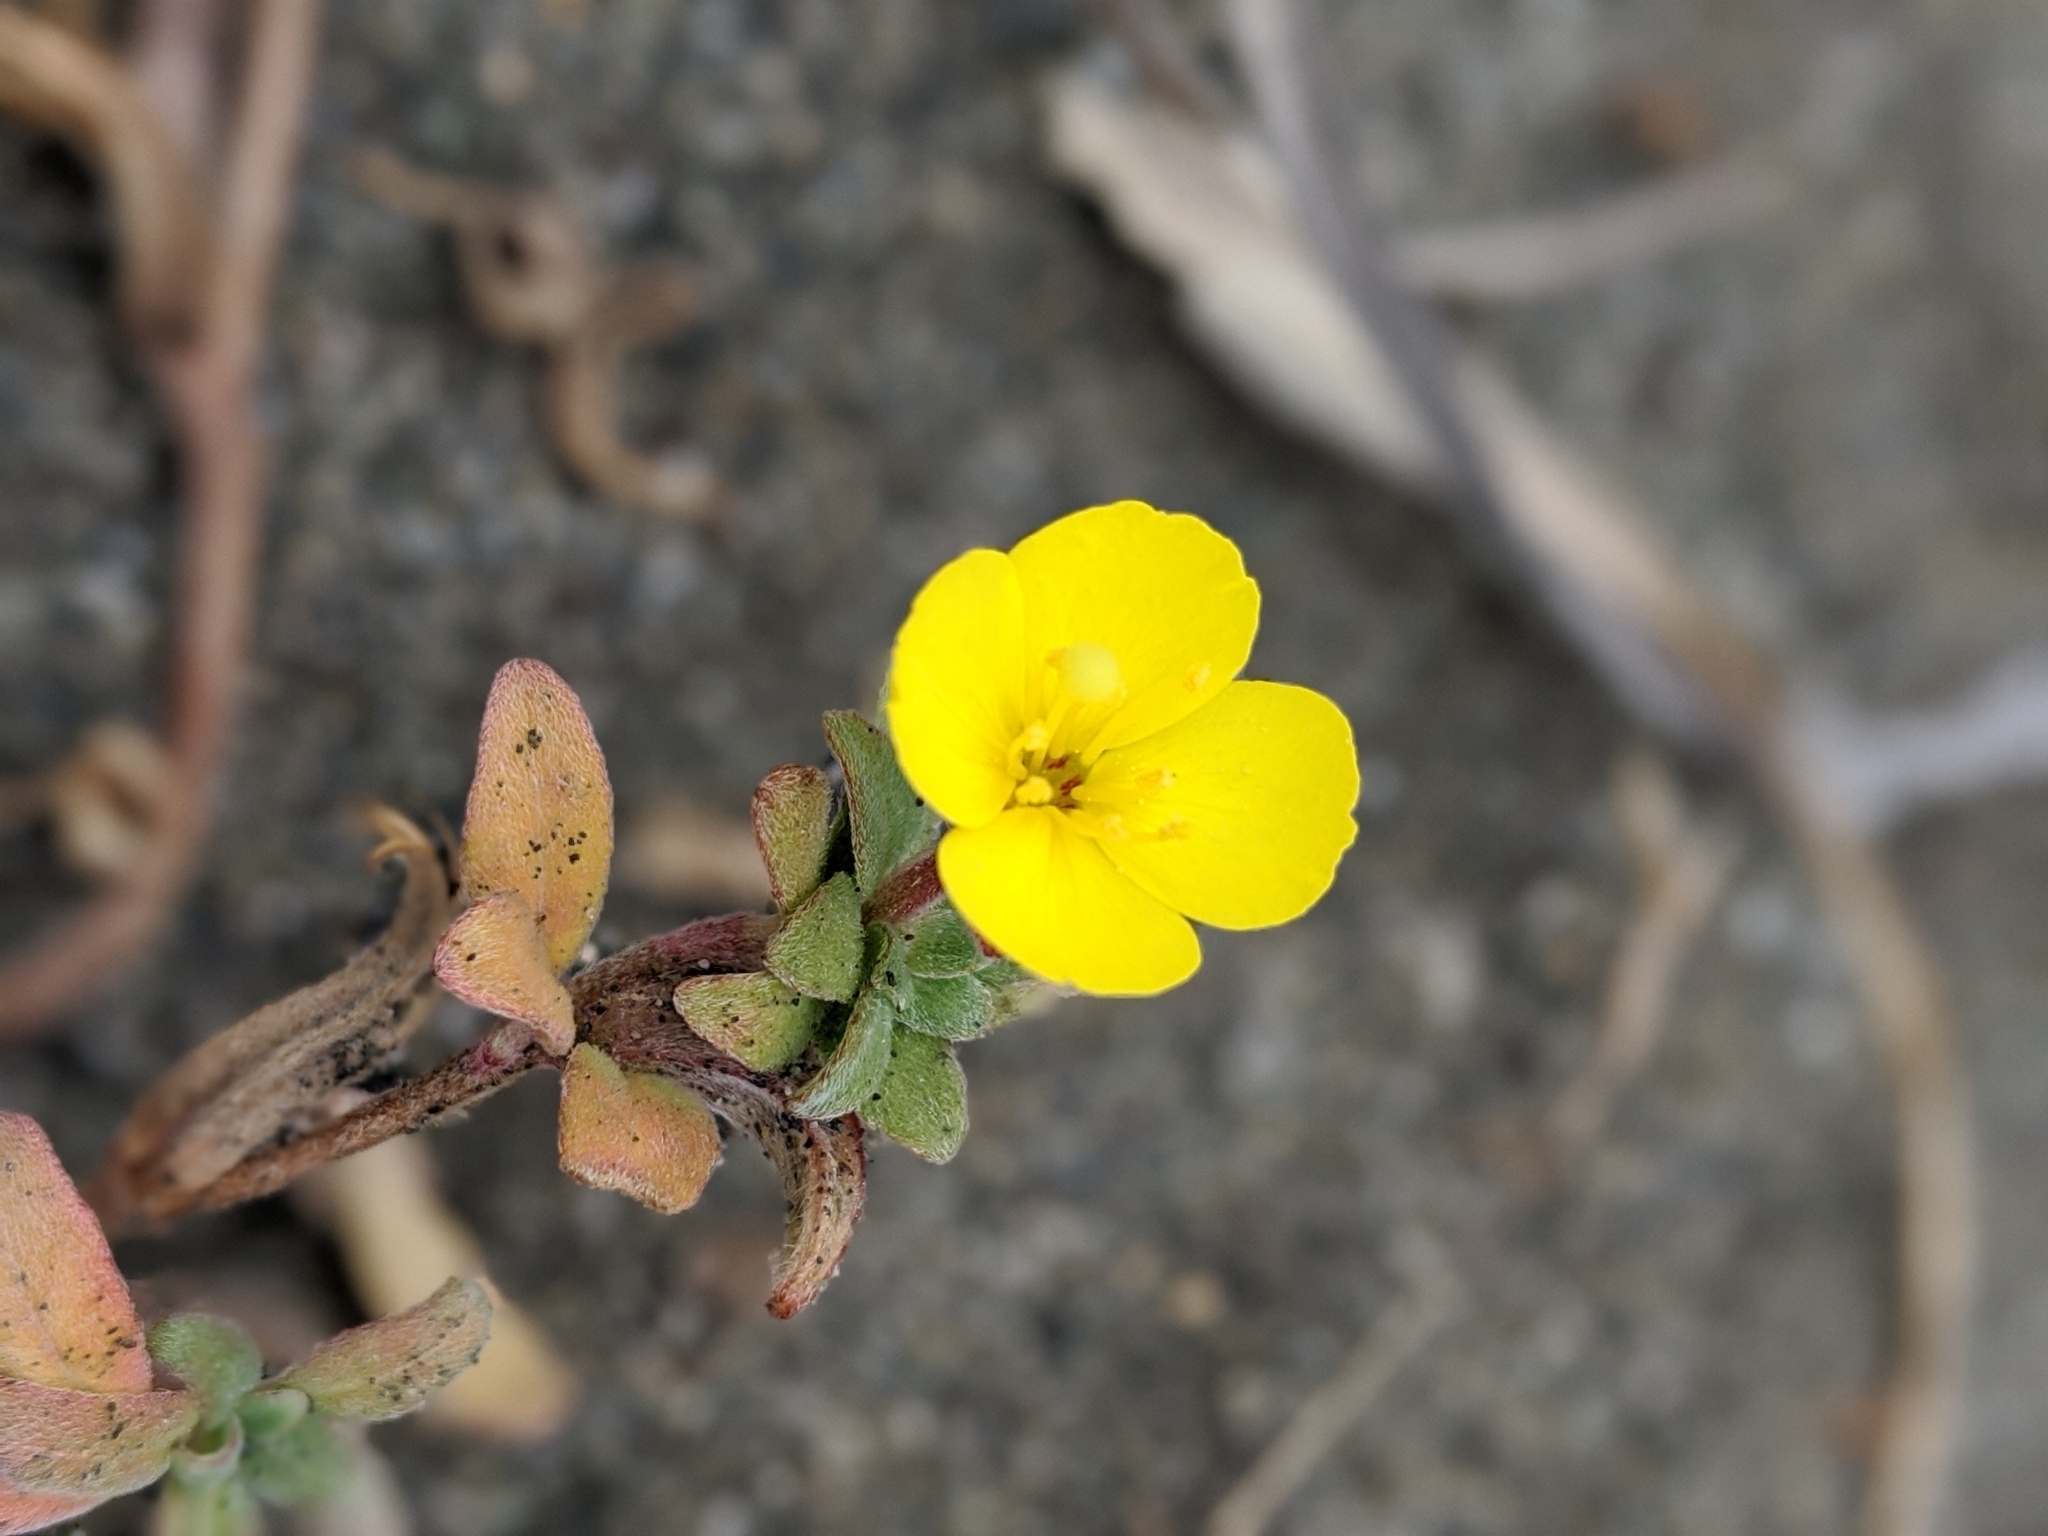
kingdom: Plantae
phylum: Tracheophyta
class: Magnoliopsida
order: Myrtales
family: Onagraceae
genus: Camissoniopsis
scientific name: Camissoniopsis cheiranthifolia
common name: Beach suncup
